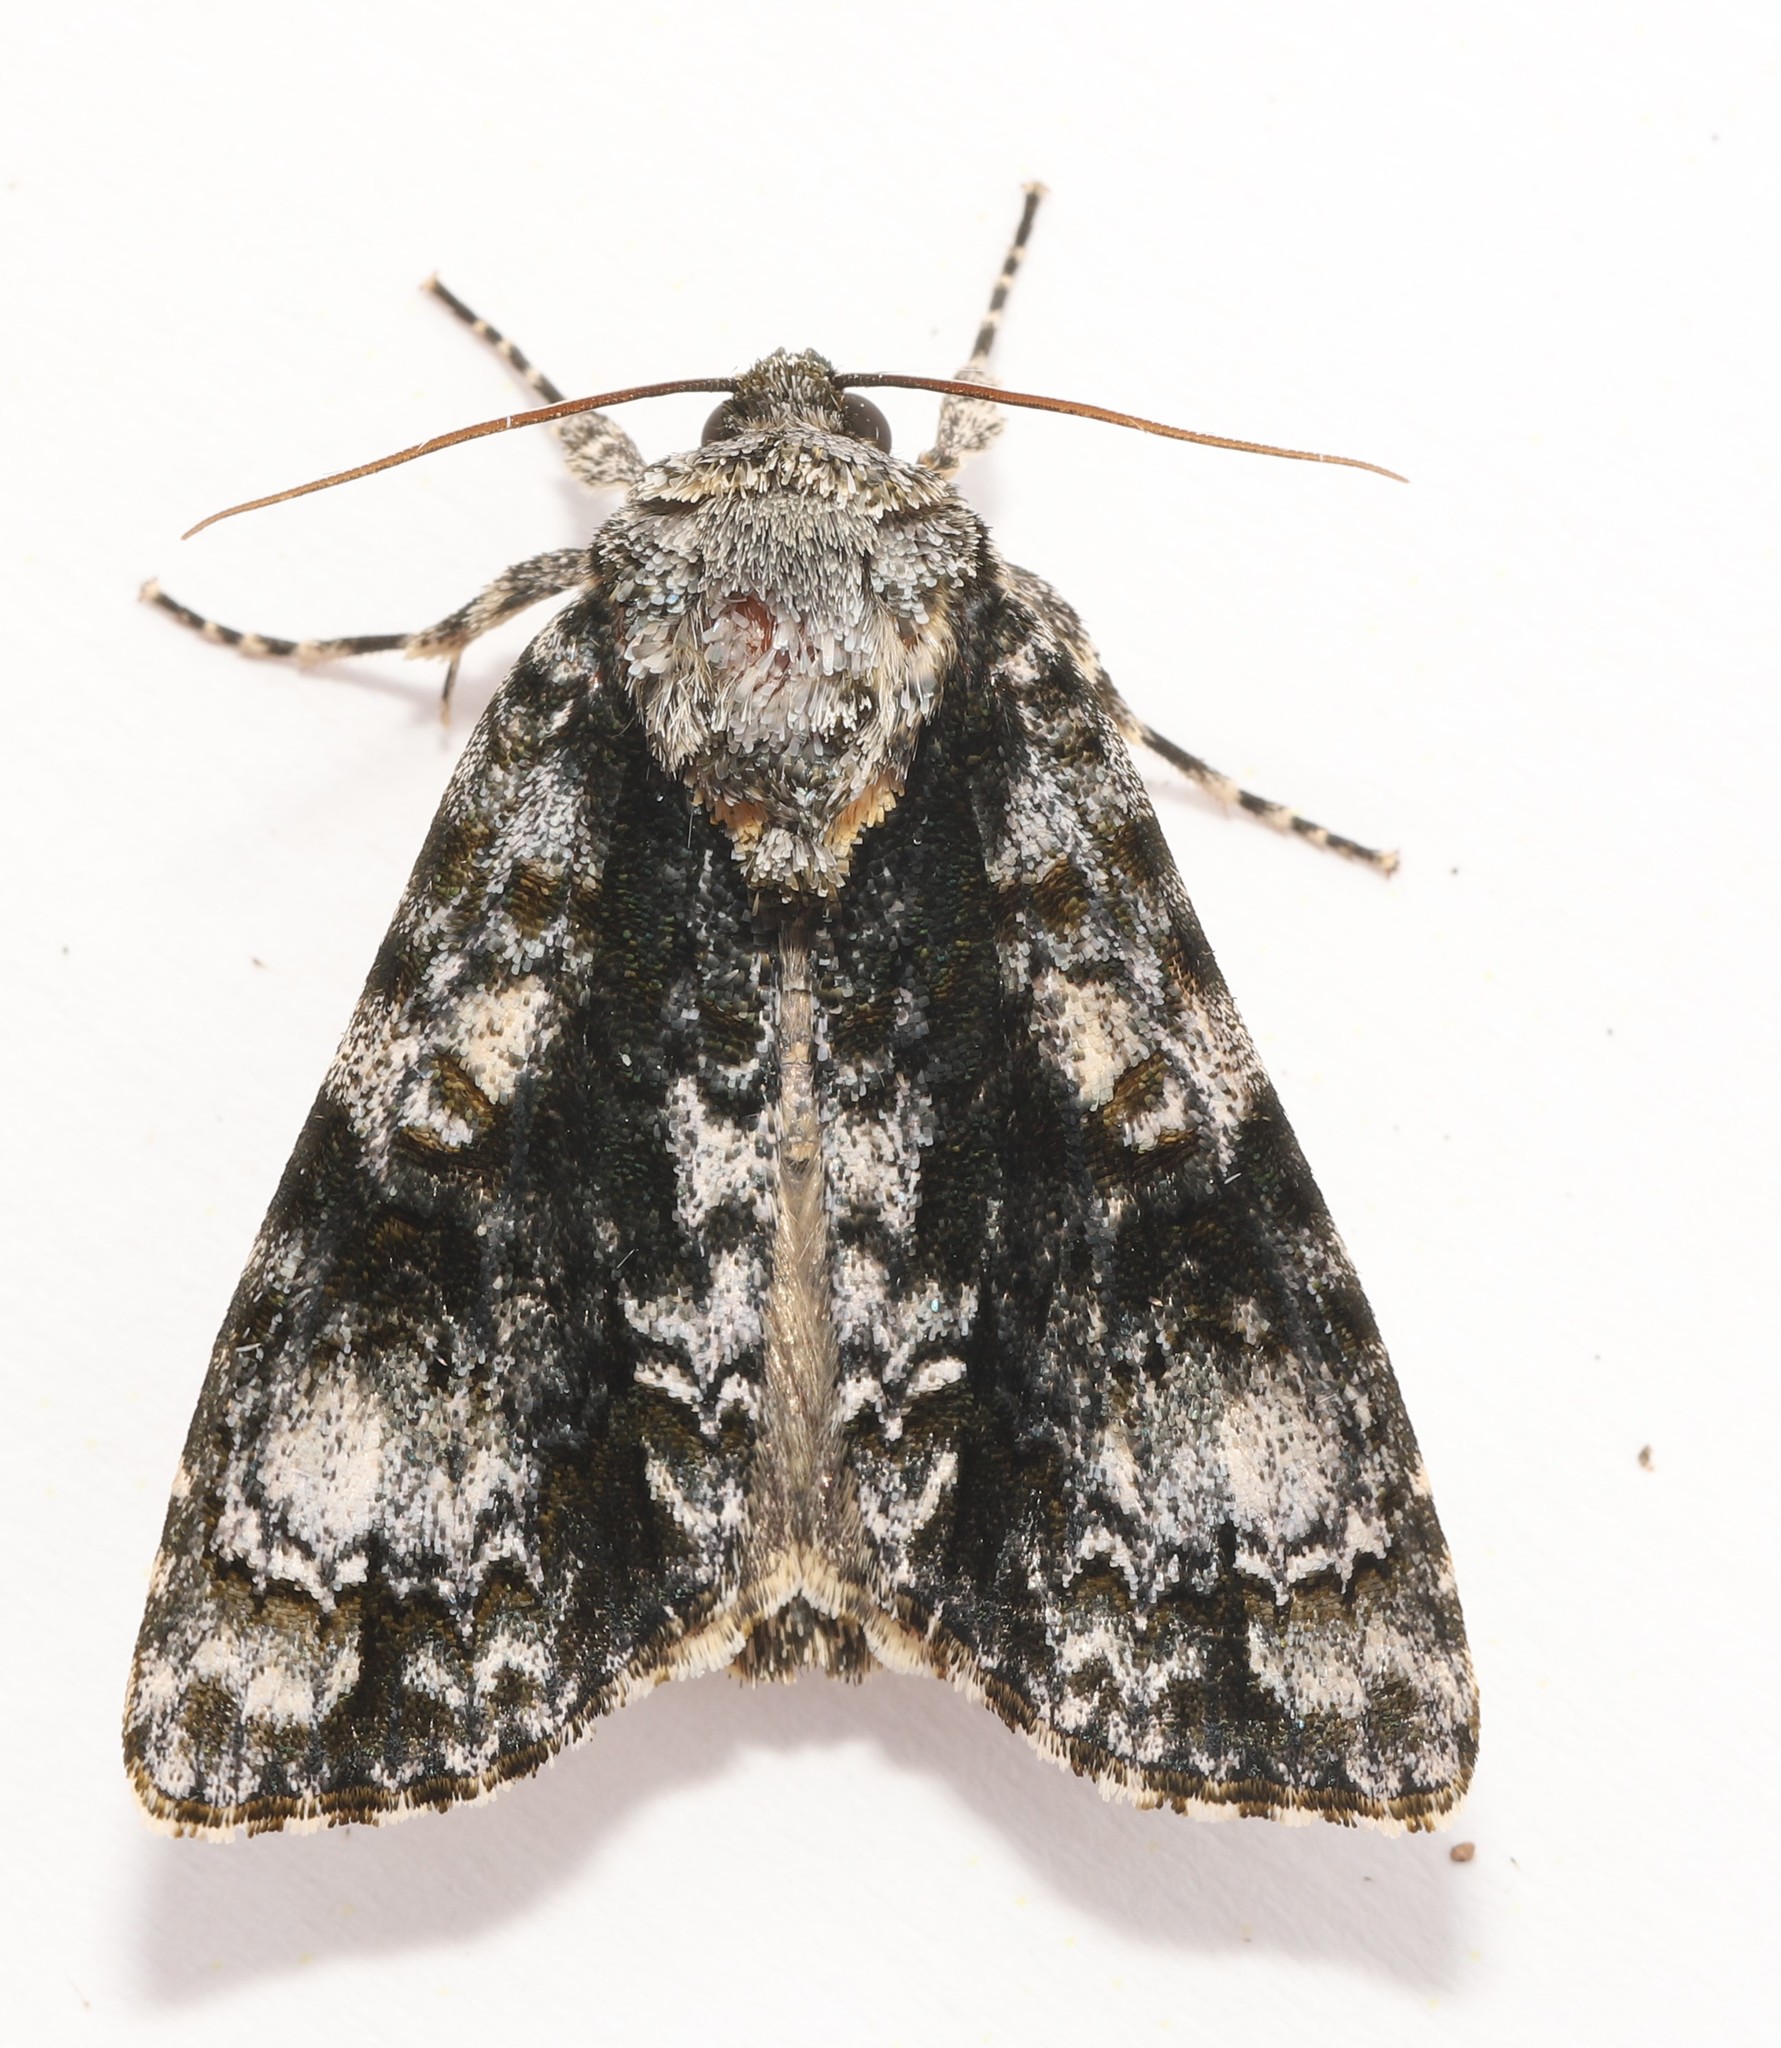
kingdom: Animalia
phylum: Arthropoda
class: Insecta
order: Lepidoptera
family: Noctuidae
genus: Acronicta
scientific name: Acronicta superans
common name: Splendid dagger
